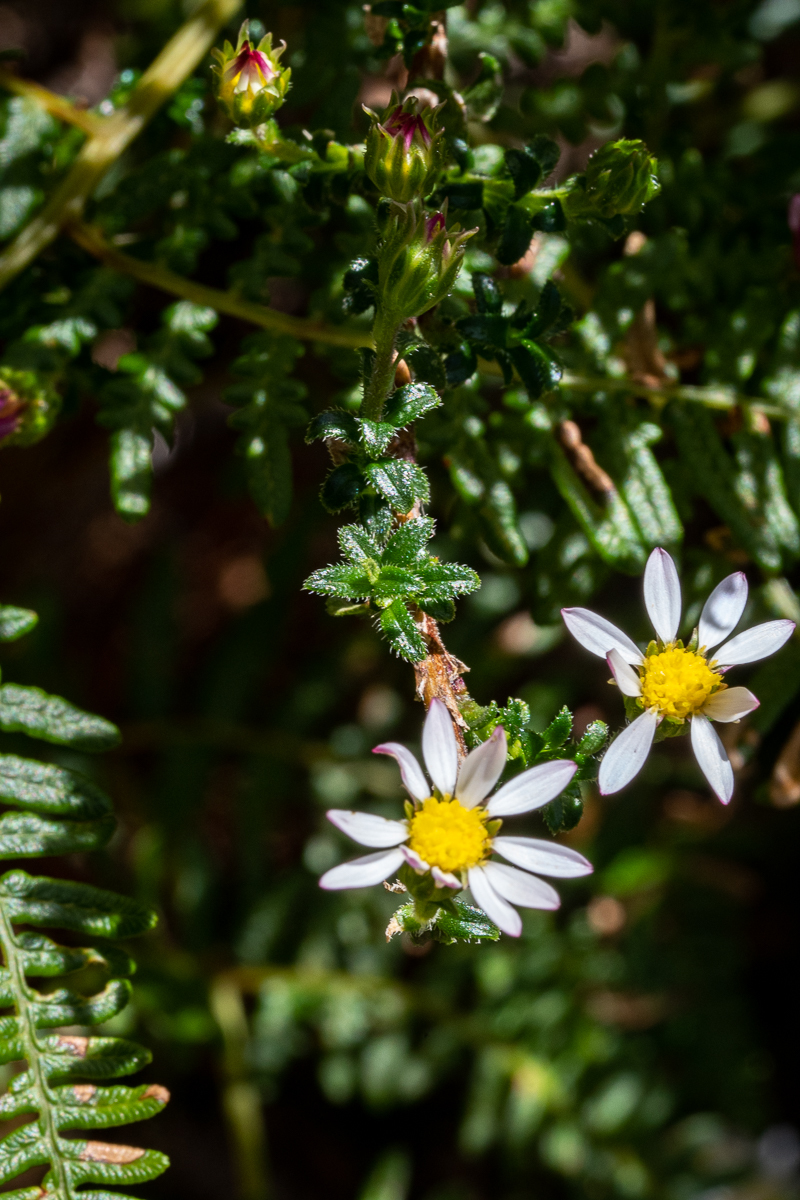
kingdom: Plantae
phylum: Tracheophyta
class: Magnoliopsida
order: Asterales
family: Asteraceae
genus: Polyarrhena
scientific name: Polyarrhena reflexa
